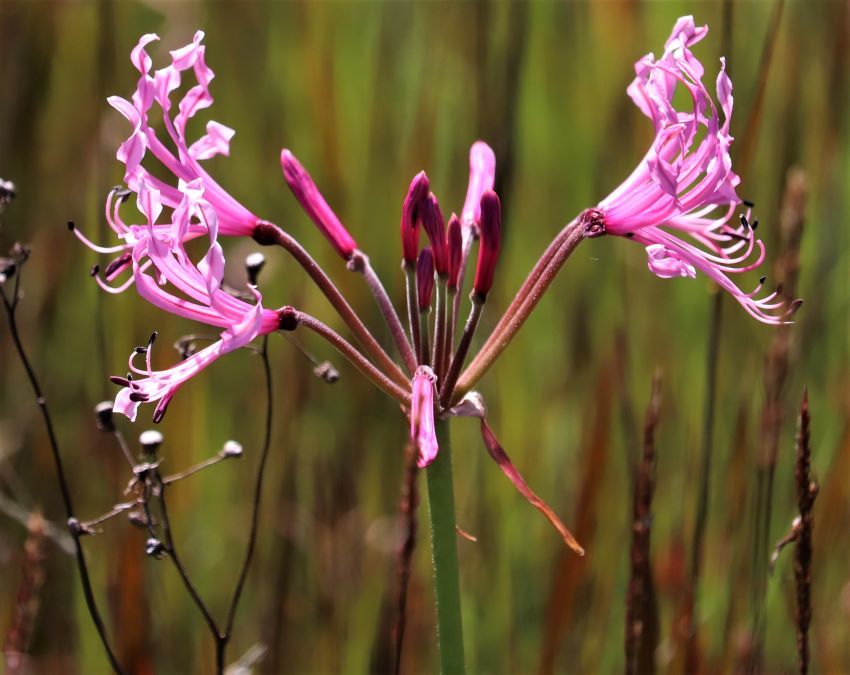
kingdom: Plantae
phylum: Tracheophyta
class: Liliopsida
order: Asparagales
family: Amaryllidaceae
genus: Nerine
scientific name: Nerine angustifolia
